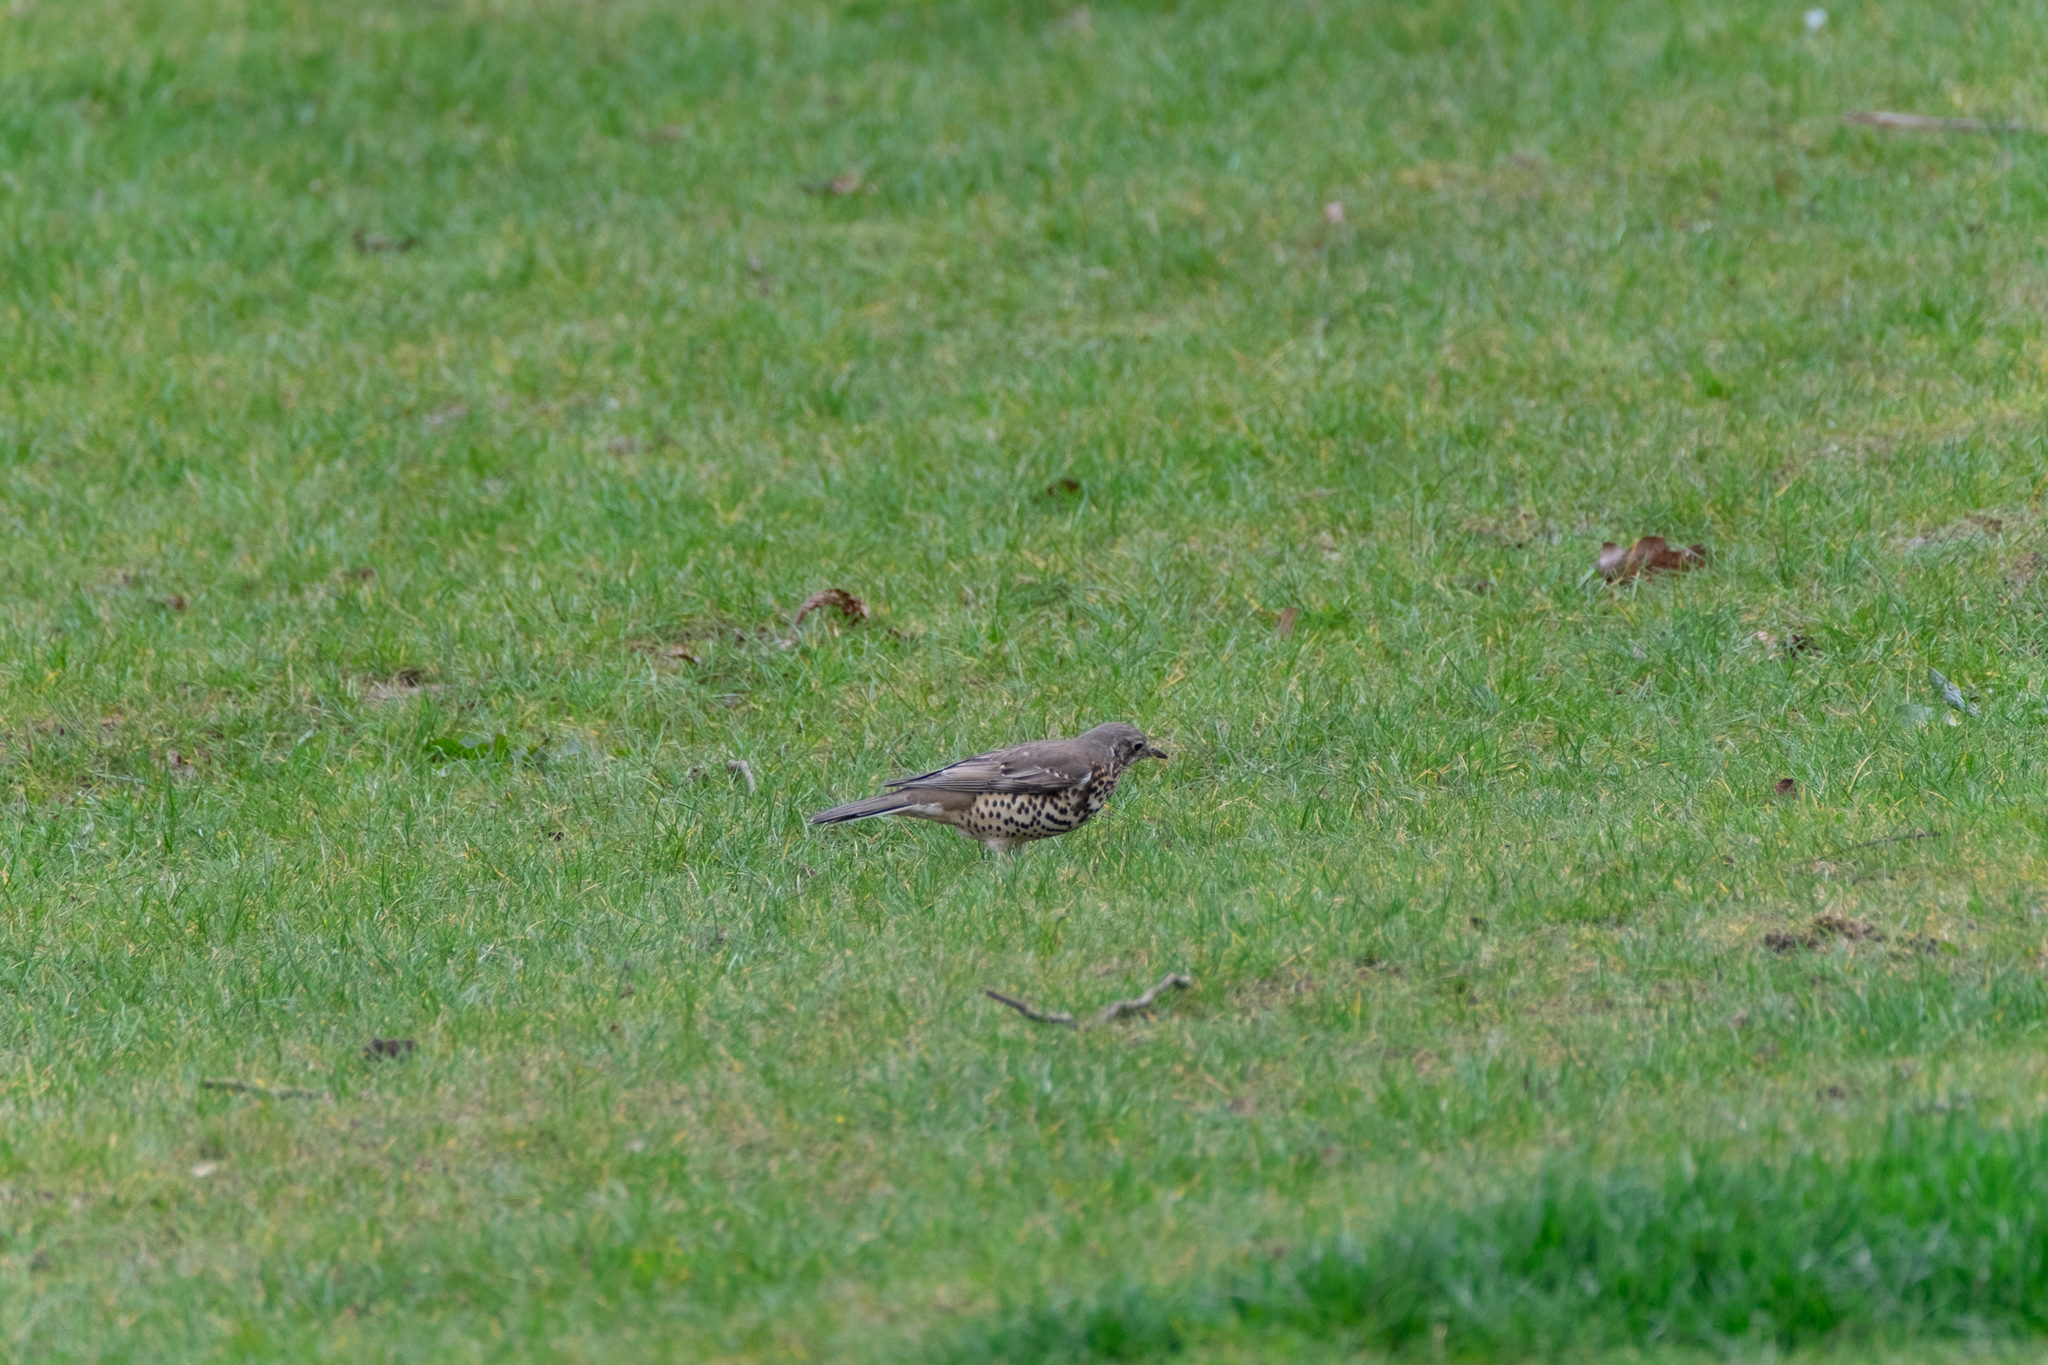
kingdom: Animalia
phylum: Chordata
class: Aves
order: Passeriformes
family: Turdidae
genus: Turdus
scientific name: Turdus viscivorus
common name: Mistle thrush
